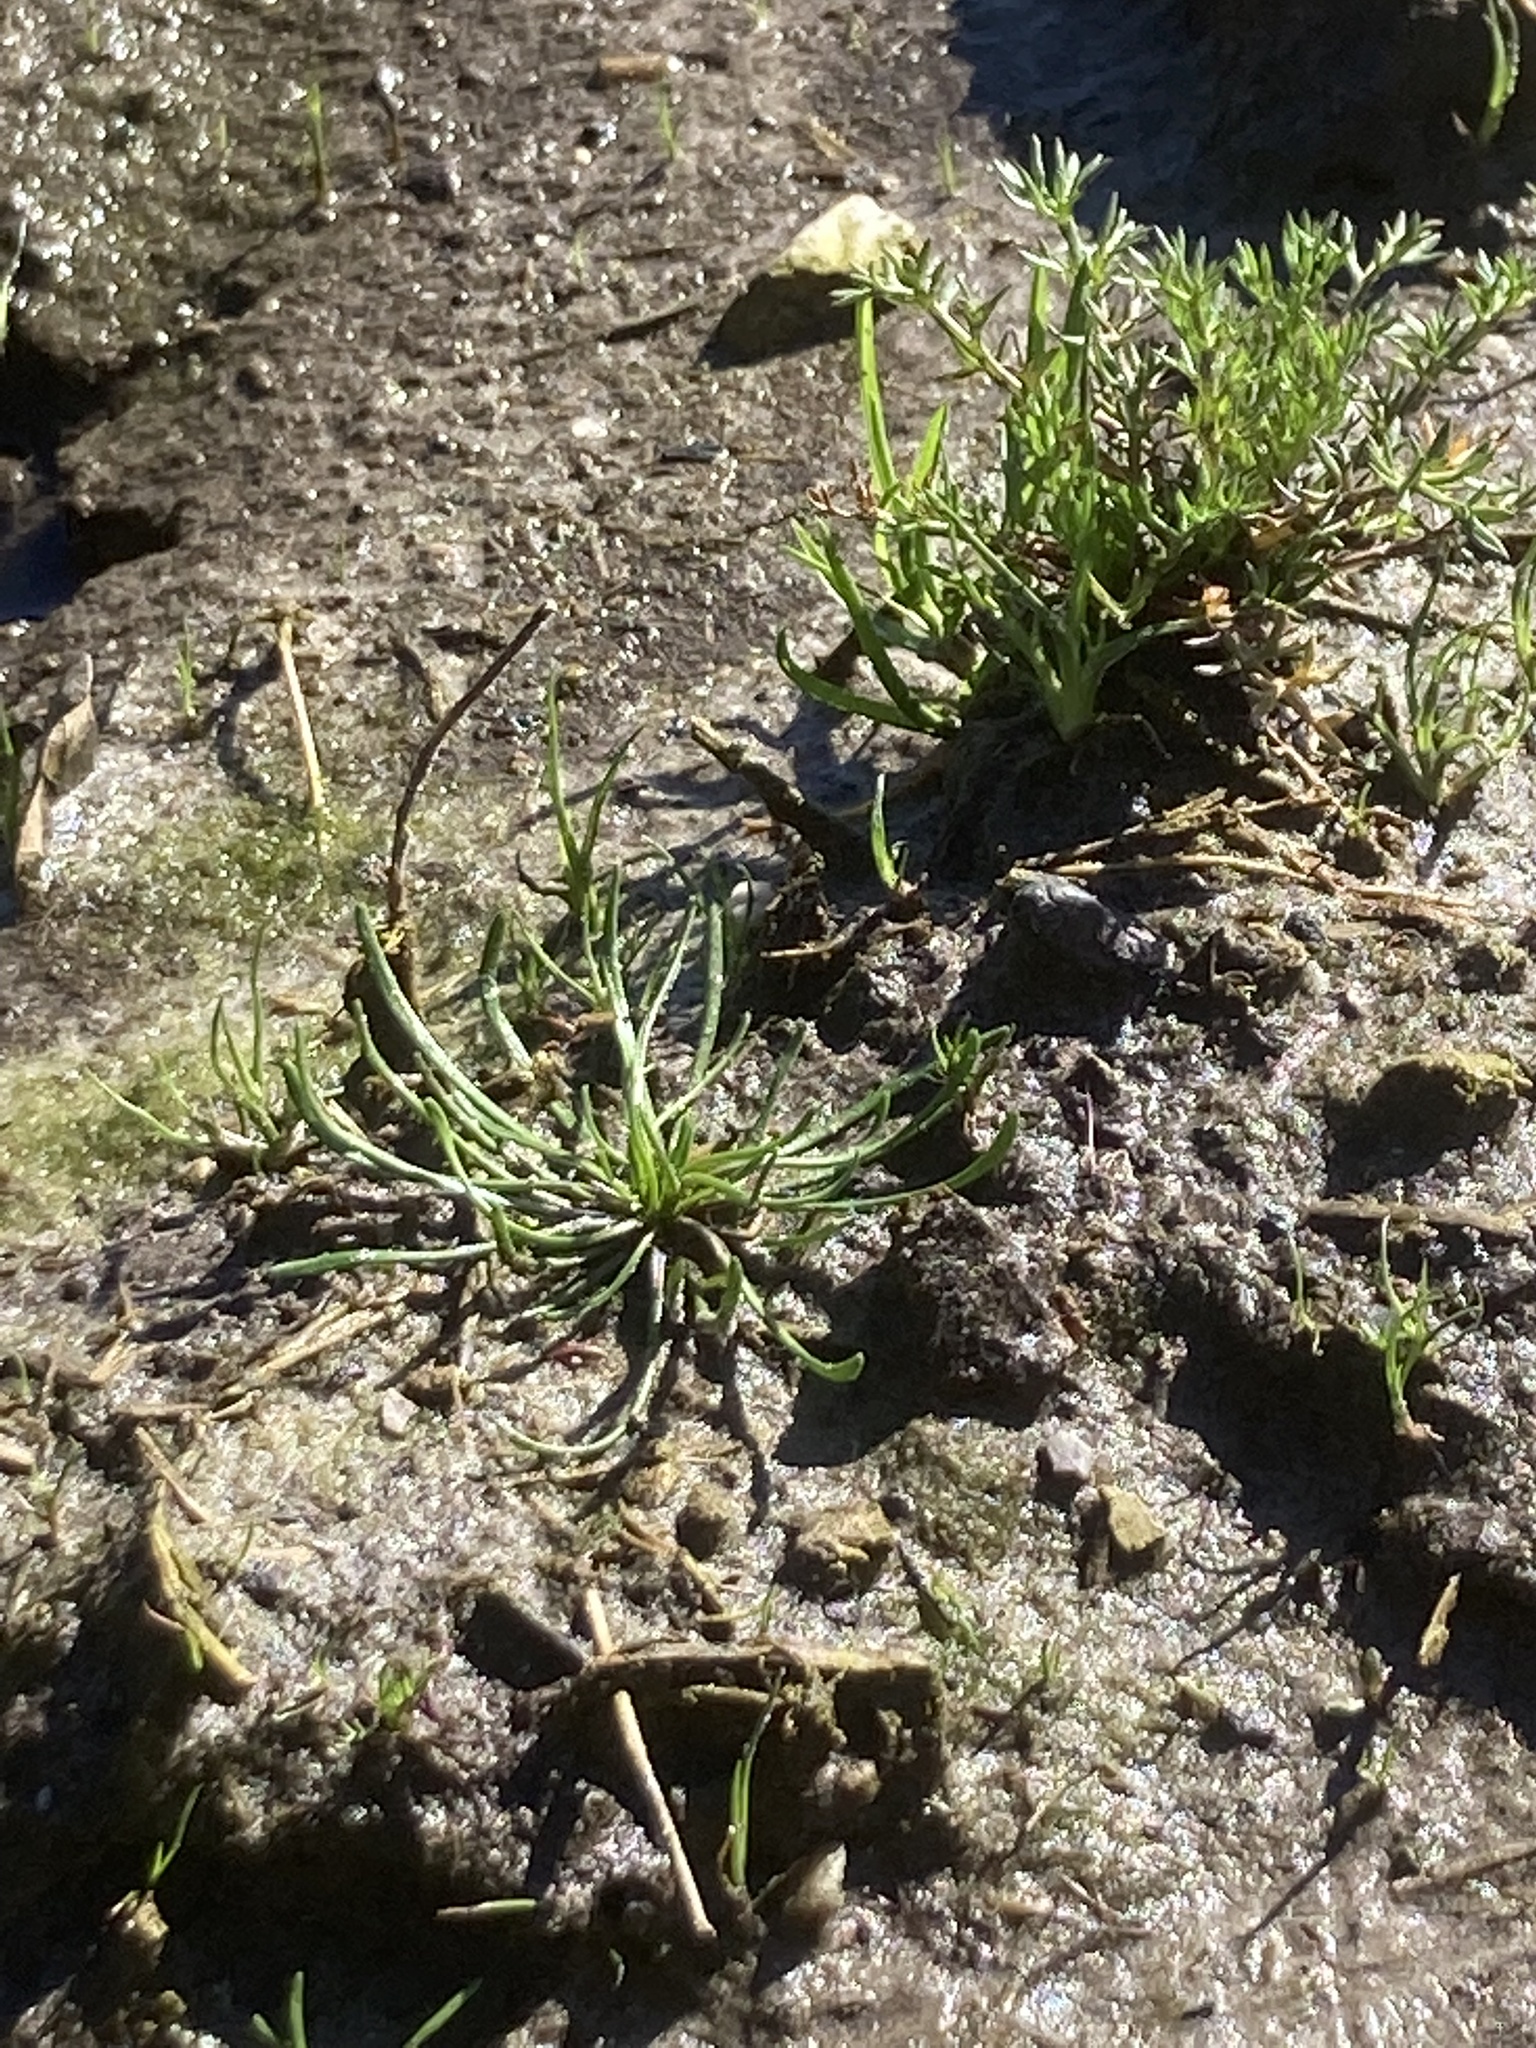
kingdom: Plantae
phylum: Tracheophyta
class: Magnoliopsida
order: Ranunculales
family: Ranunculaceae
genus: Myosurus
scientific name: Myosurus minimus
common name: Mousetail
